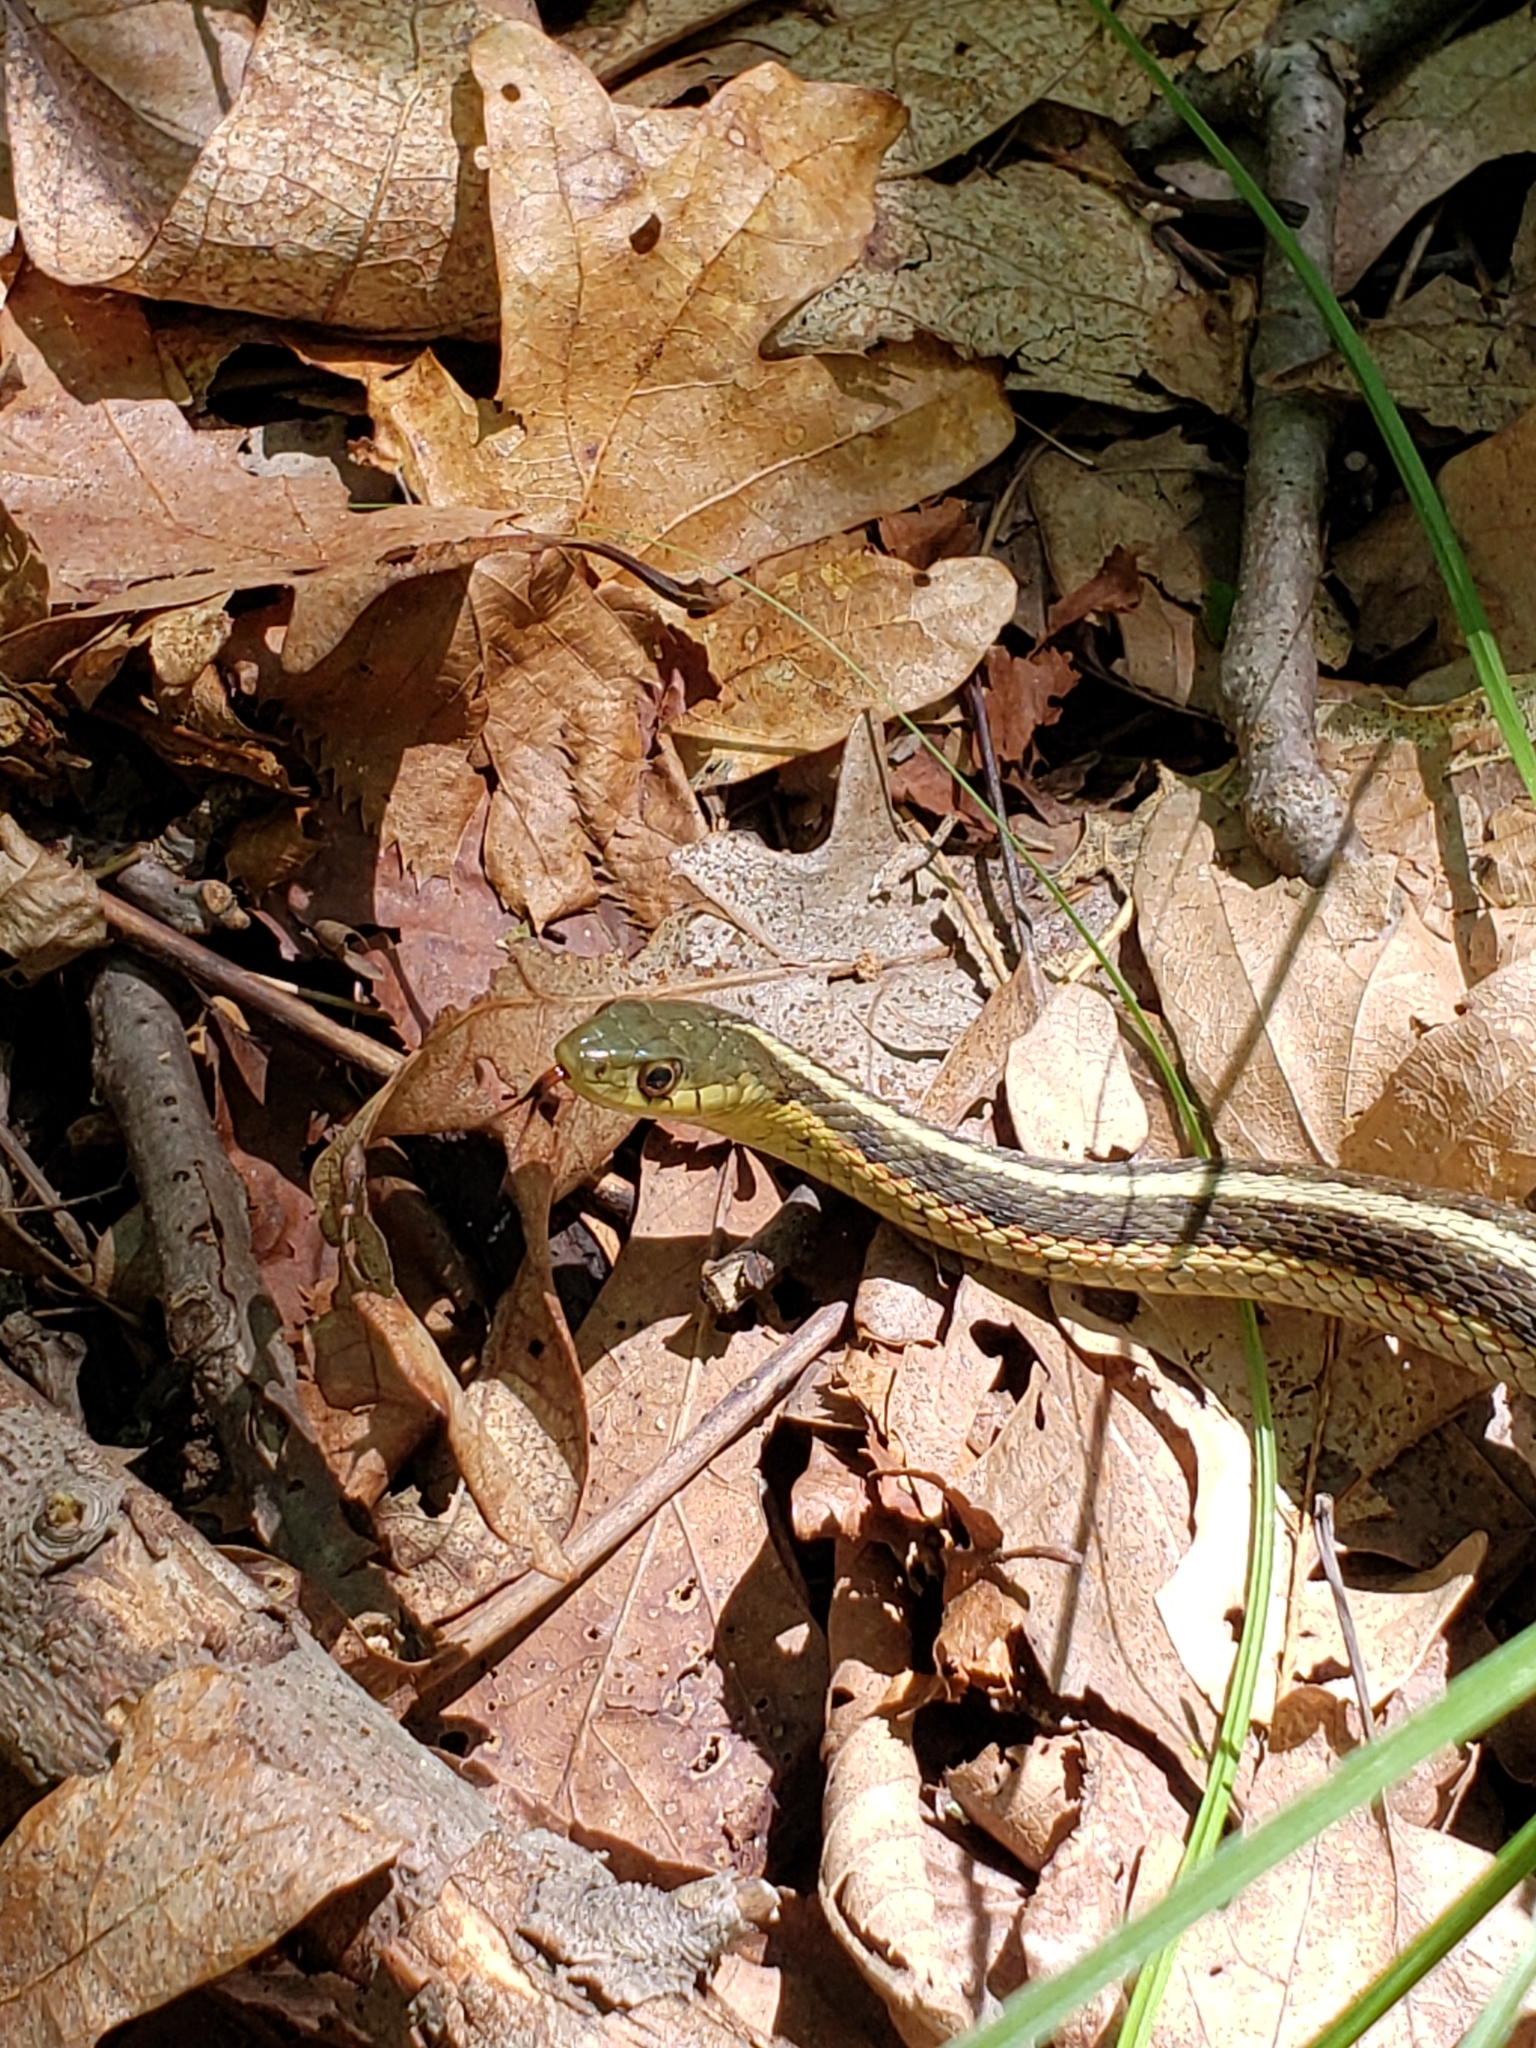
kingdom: Animalia
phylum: Chordata
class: Squamata
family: Colubridae
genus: Thamnophis
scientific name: Thamnophis sirtalis
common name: Common garter snake
